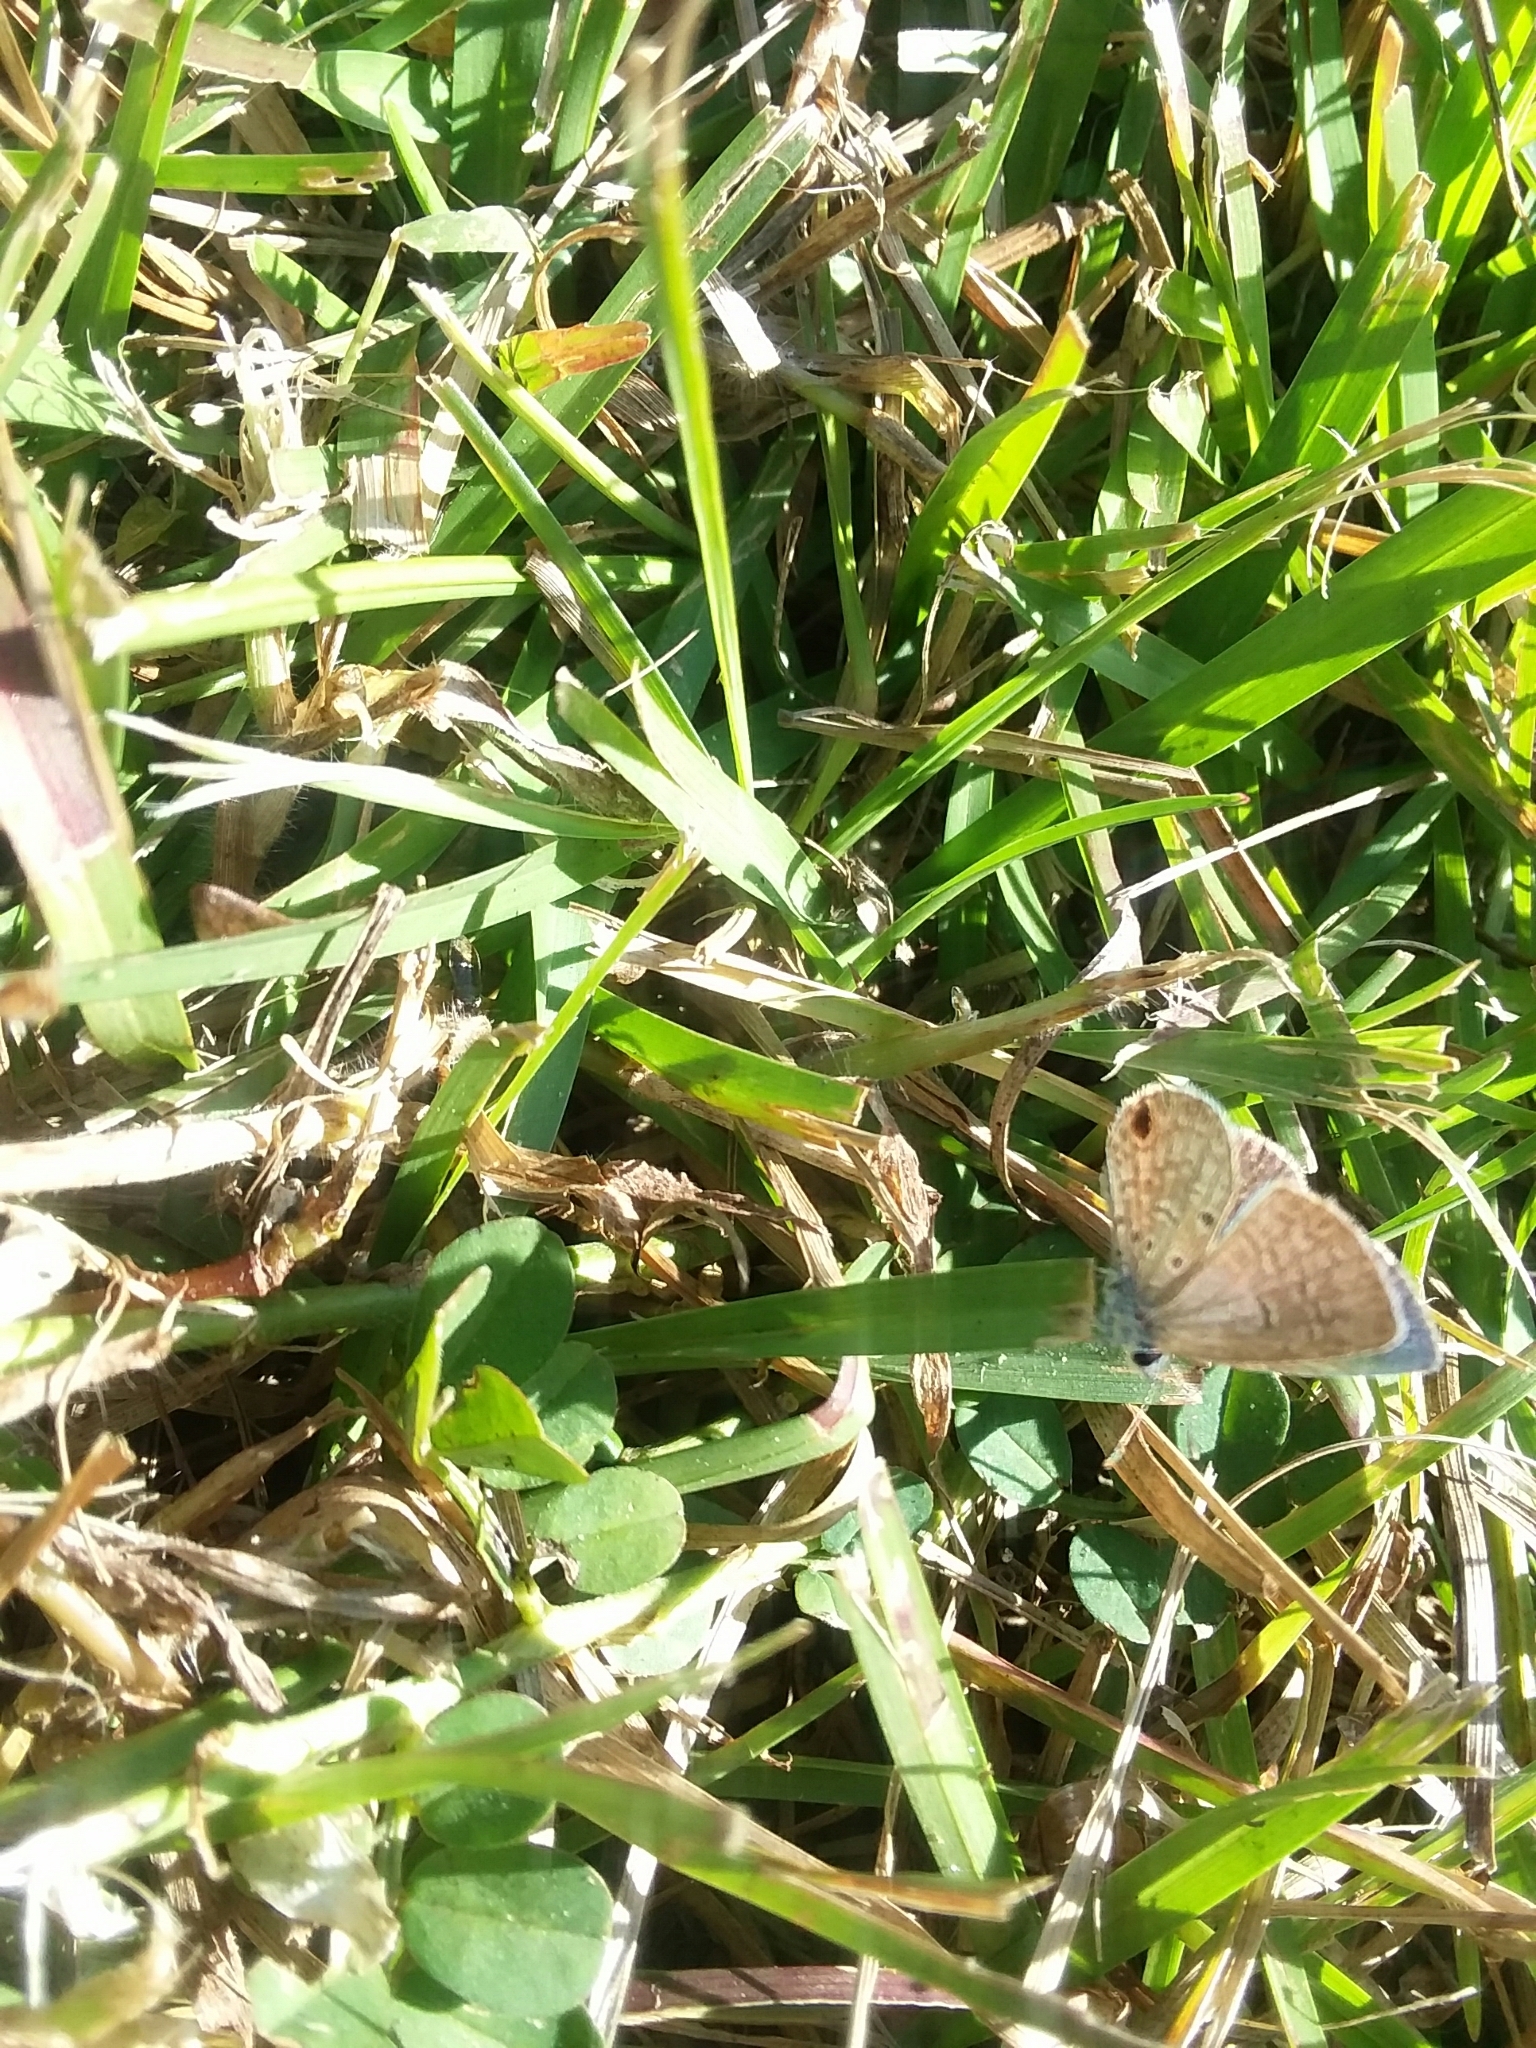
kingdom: Animalia
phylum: Arthropoda
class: Insecta
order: Lepidoptera
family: Lycaenidae
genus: Hemiargus
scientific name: Hemiargus ceraunus
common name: Ceraunus blue
